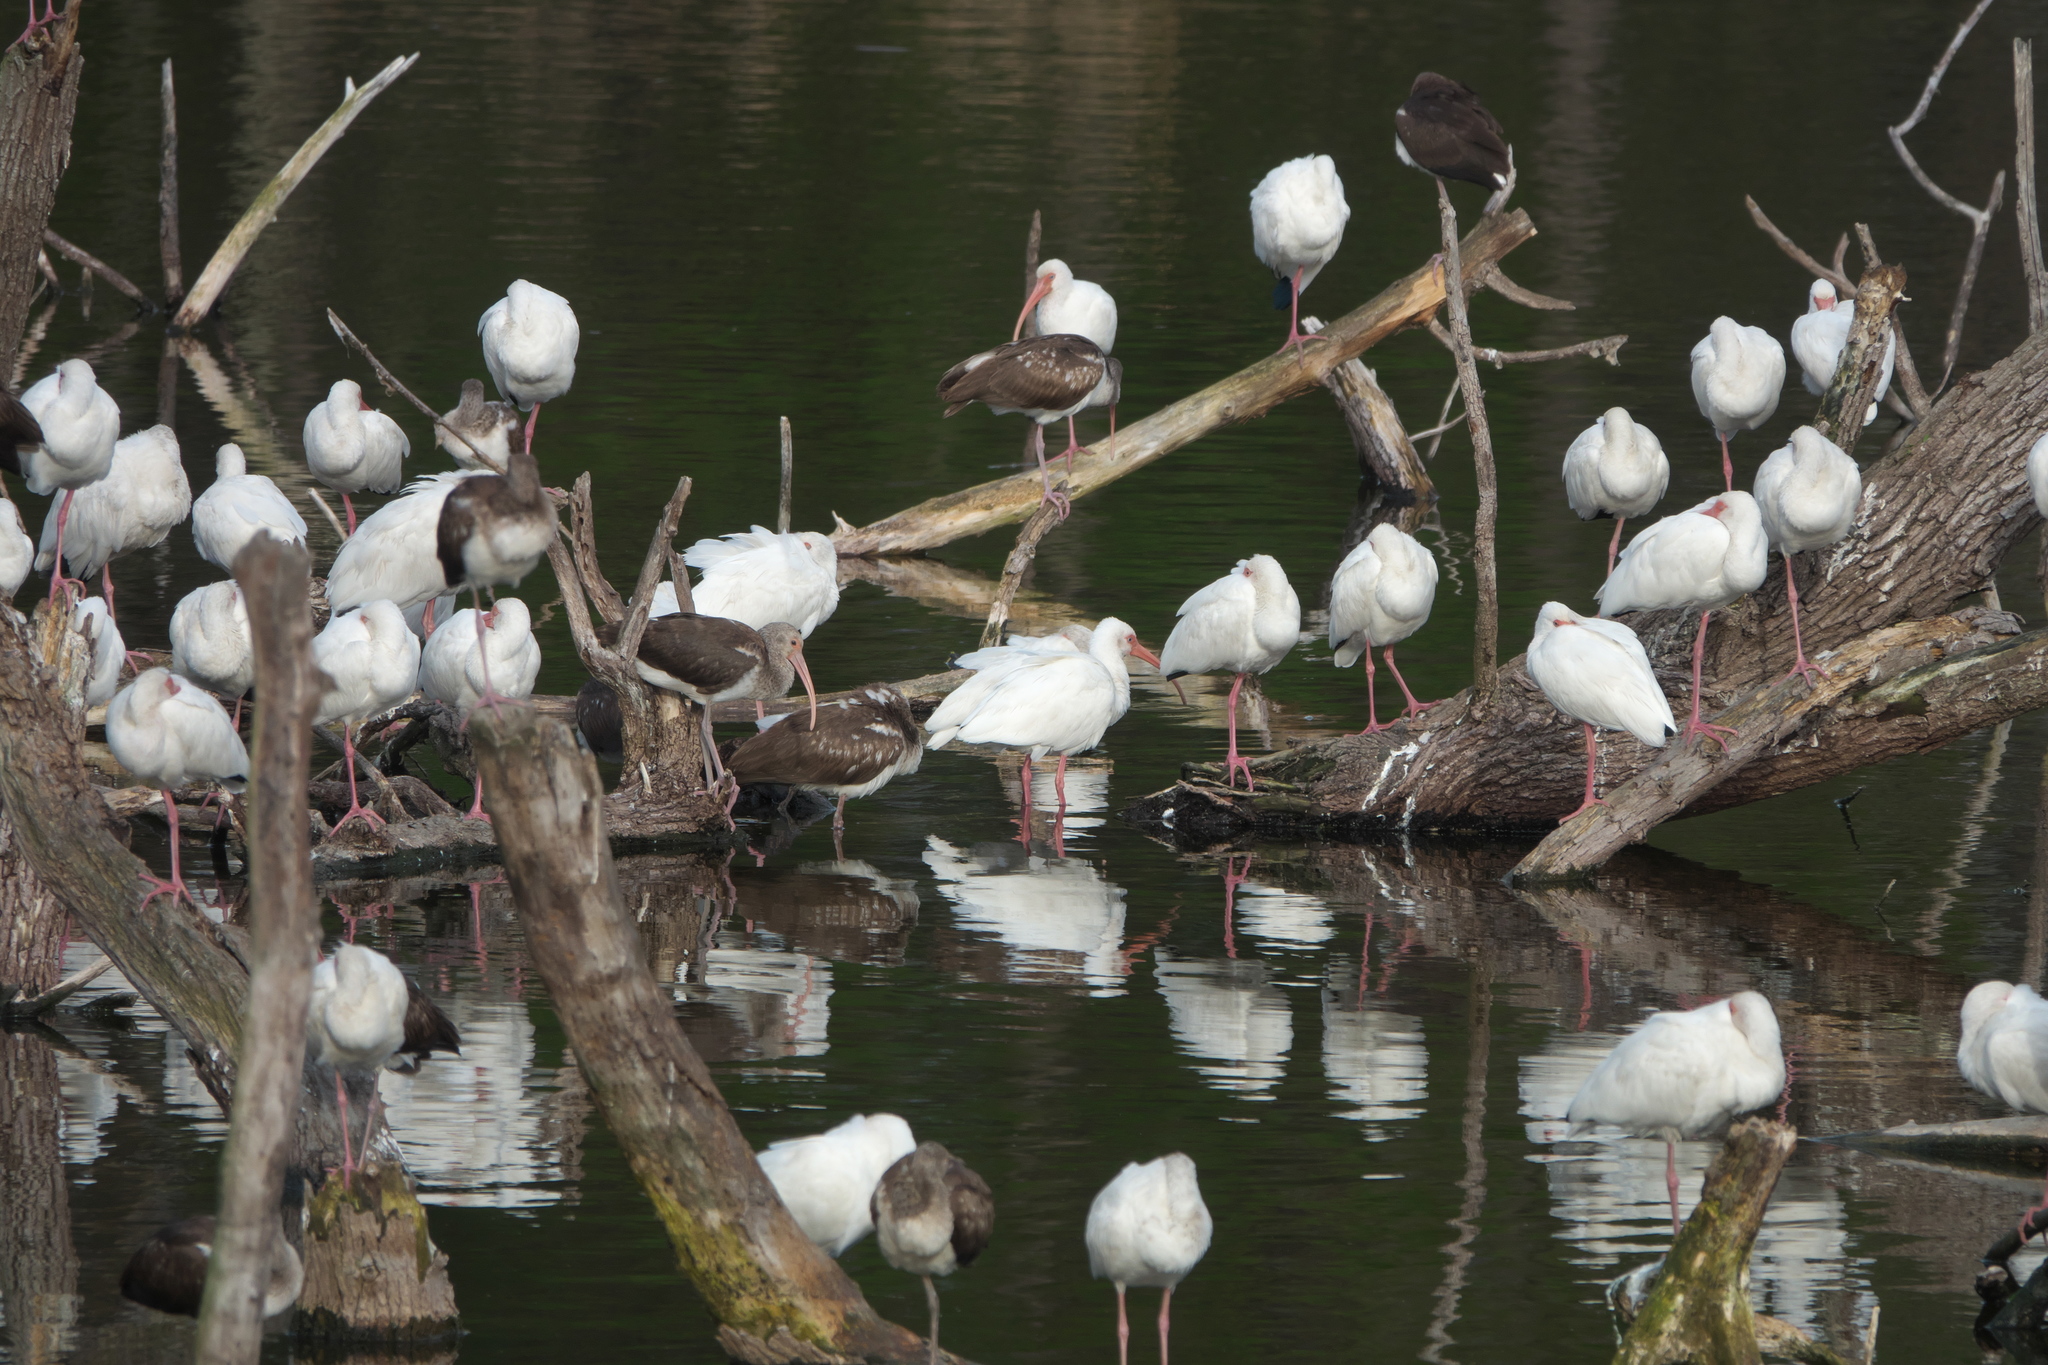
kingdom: Animalia
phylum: Chordata
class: Aves
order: Pelecaniformes
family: Threskiornithidae
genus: Eudocimus
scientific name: Eudocimus albus
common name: White ibis
